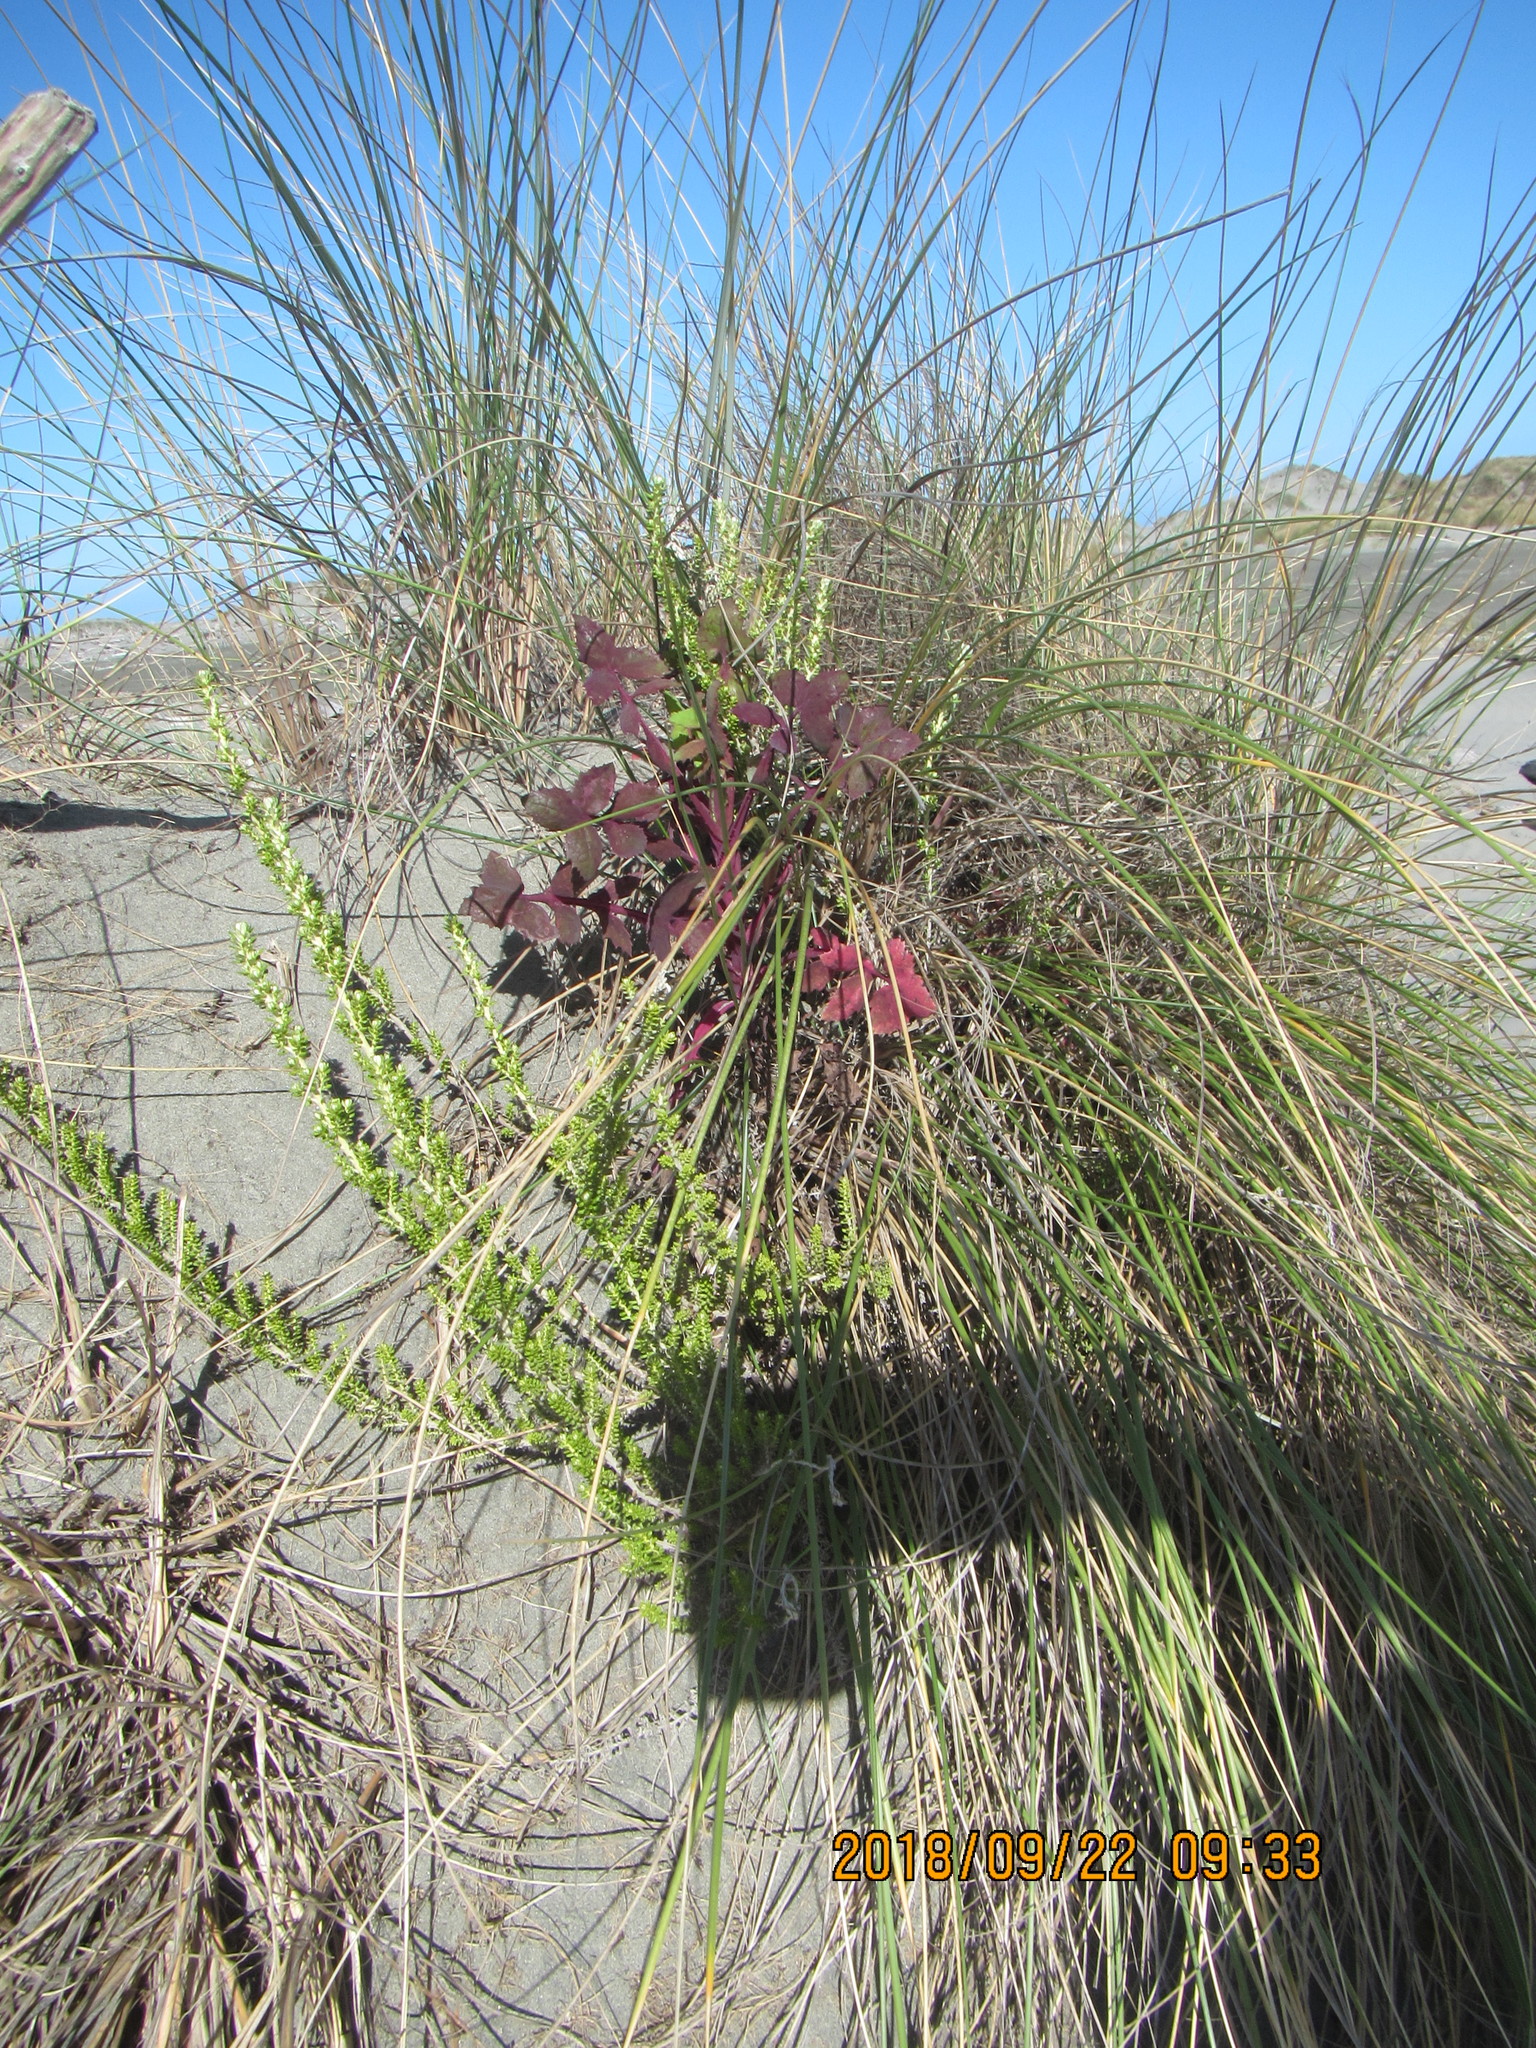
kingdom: Plantae
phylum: Tracheophyta
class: Magnoliopsida
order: Asterales
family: Asteraceae
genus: Ozothamnus
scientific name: Ozothamnus leptophyllus
